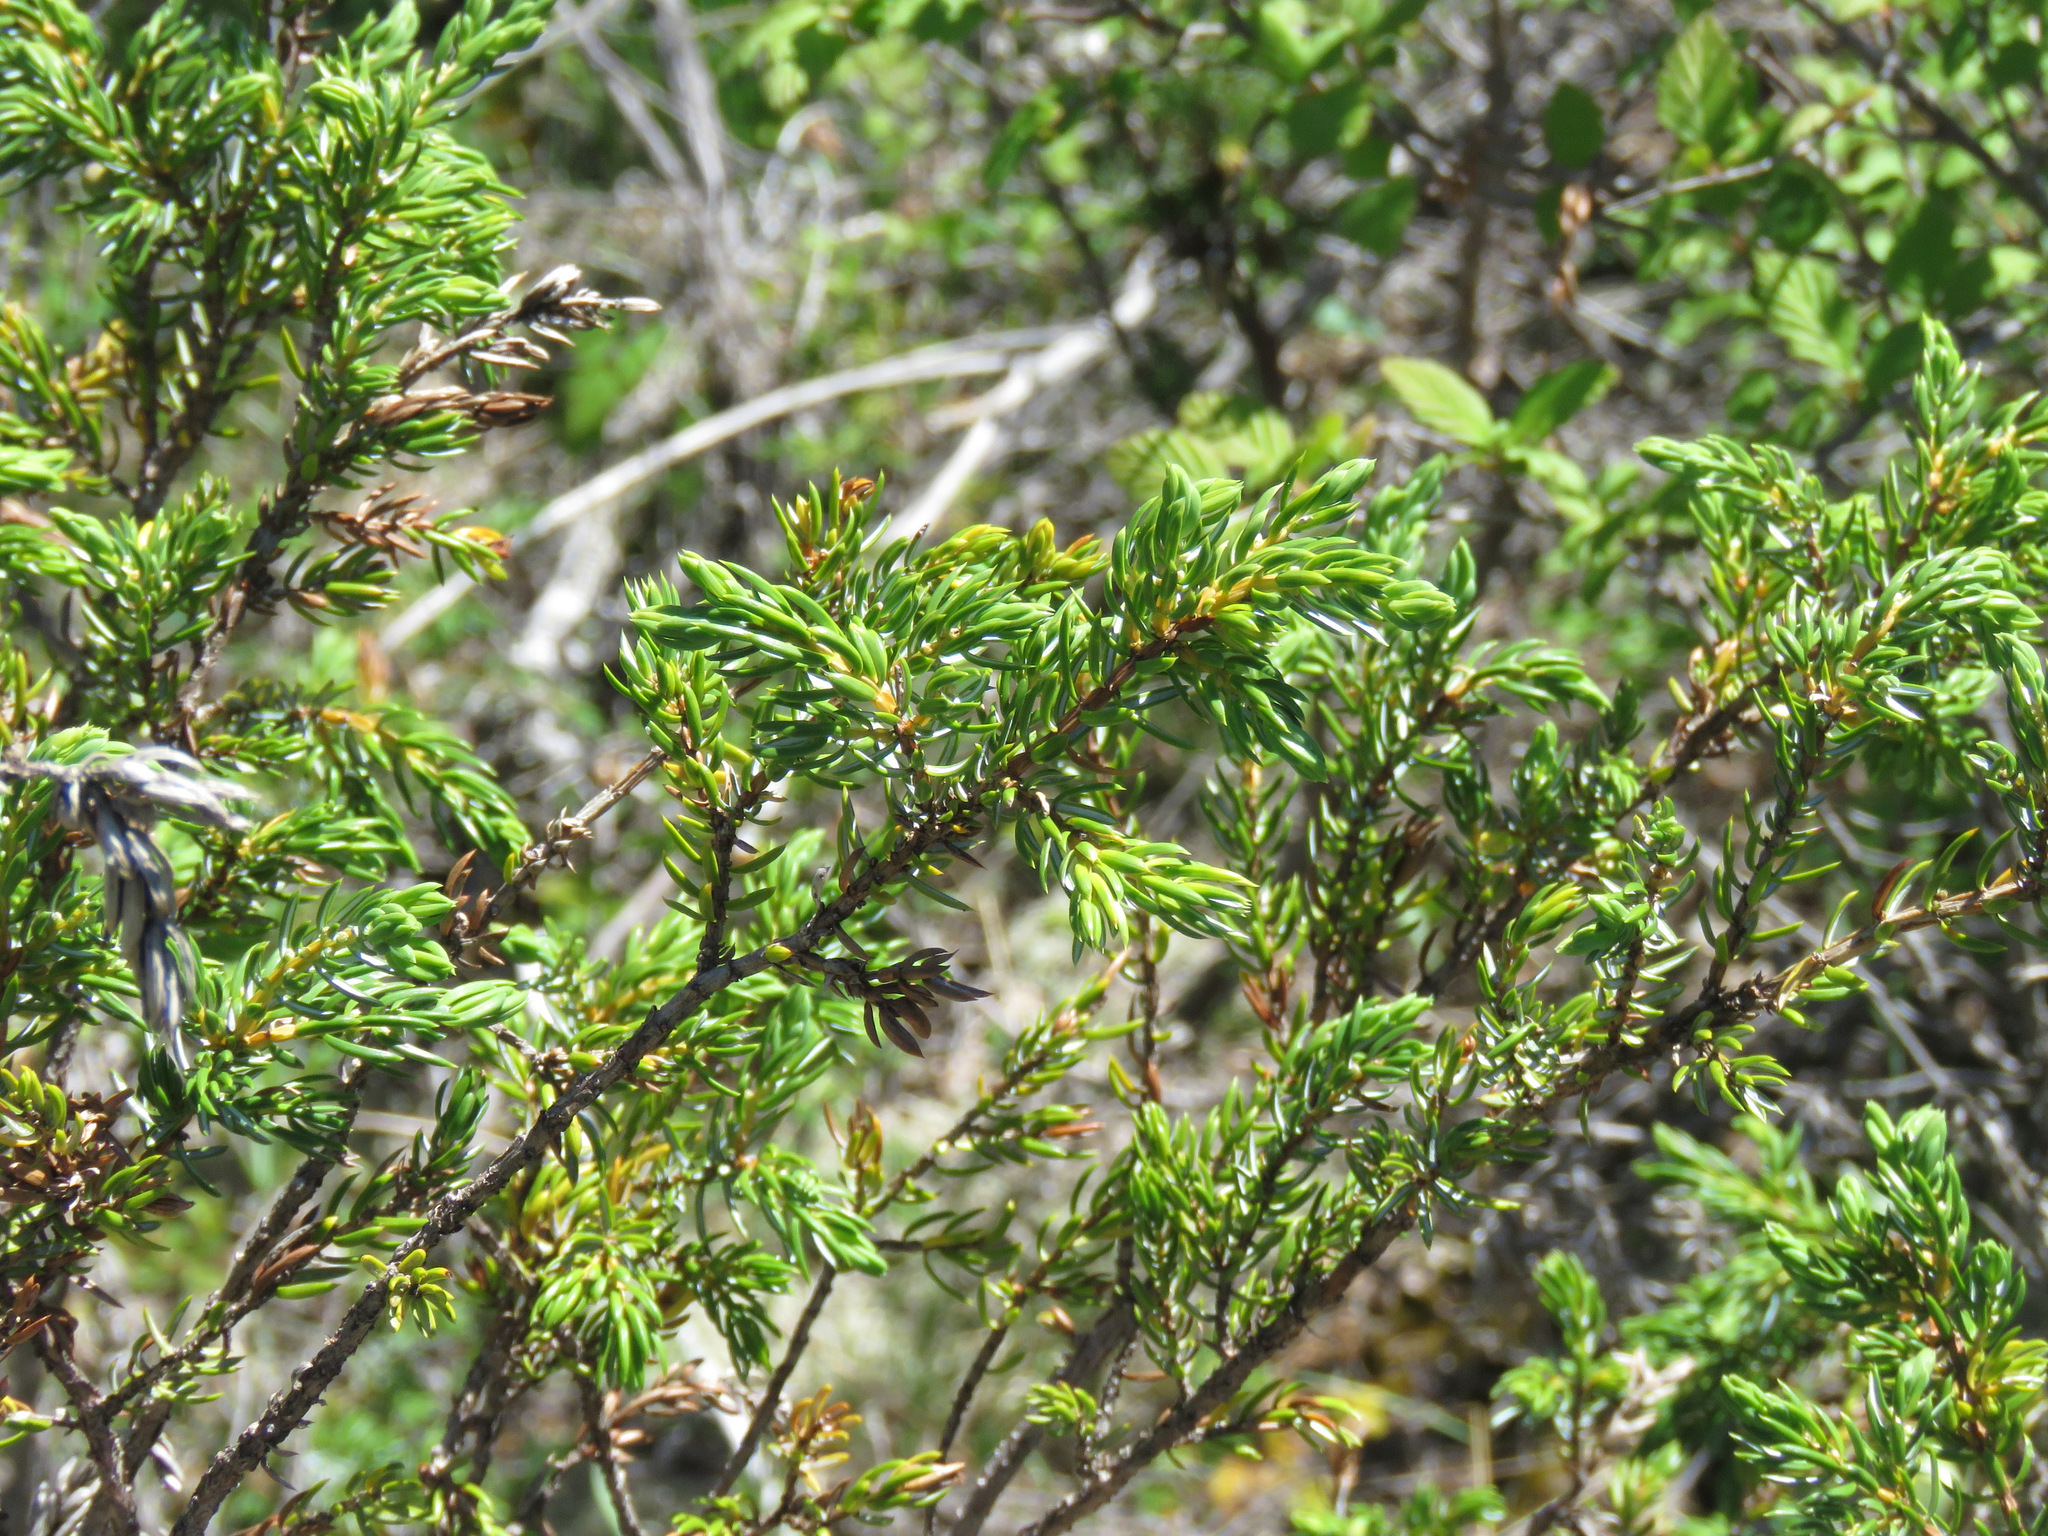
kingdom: Plantae
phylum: Tracheophyta
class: Pinopsida
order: Pinales
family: Cupressaceae
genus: Juniperus
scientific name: Juniperus communis
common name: Common juniper
